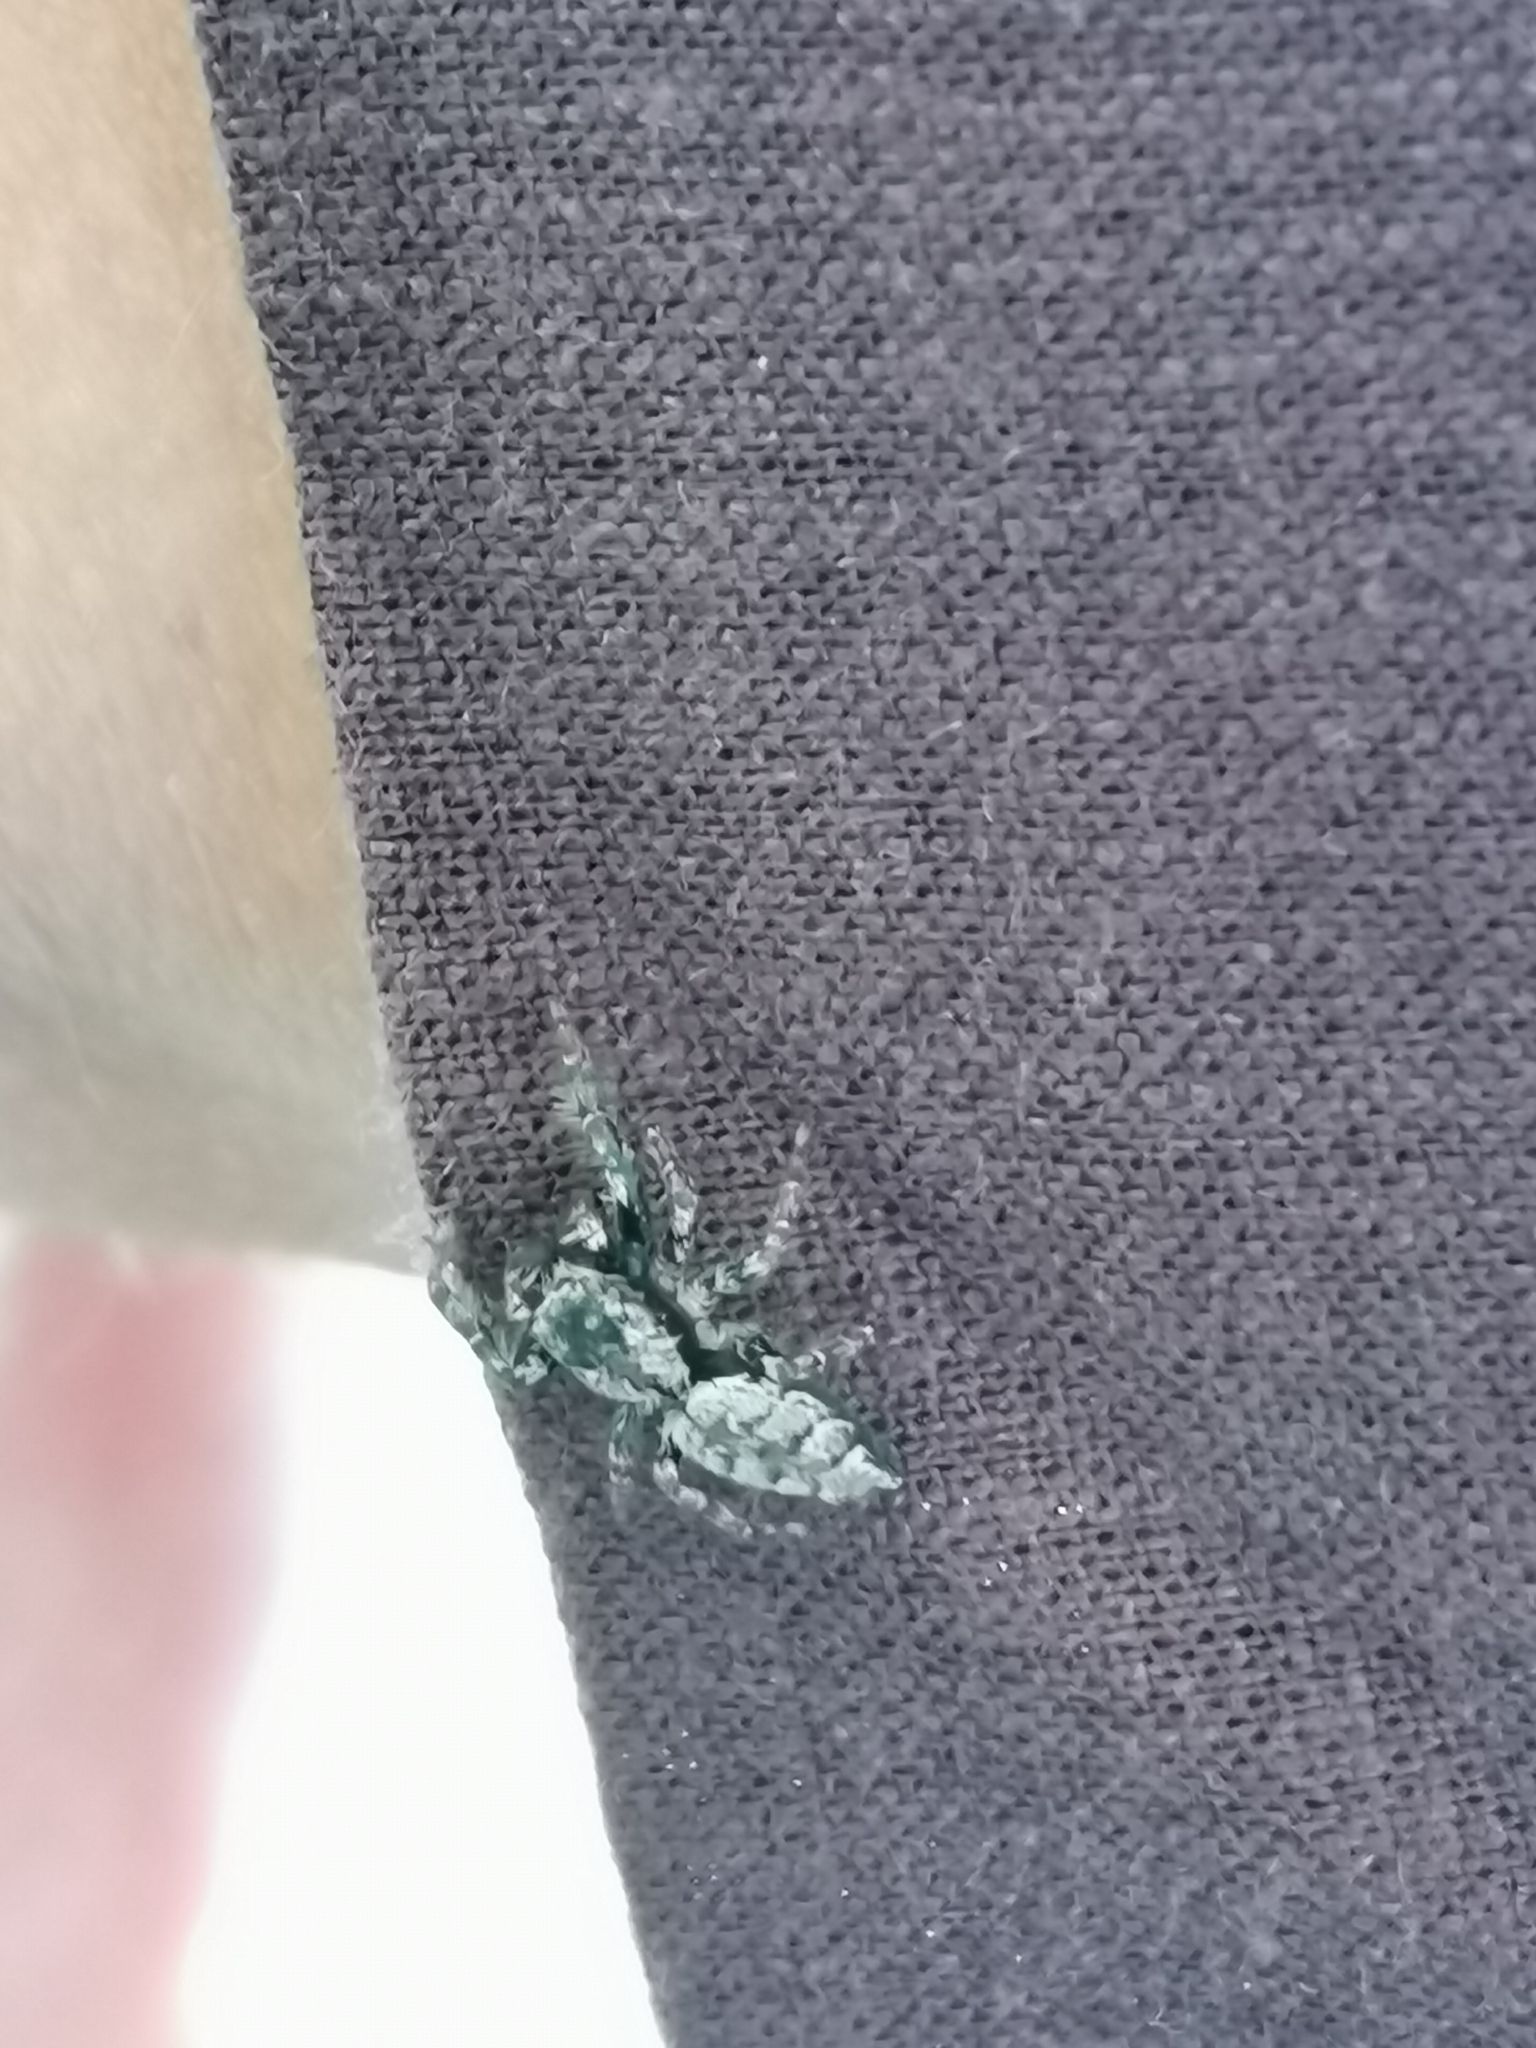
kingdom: Animalia
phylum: Arthropoda
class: Arachnida
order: Araneae
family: Salticidae
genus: Marpissa
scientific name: Marpissa muscosa
